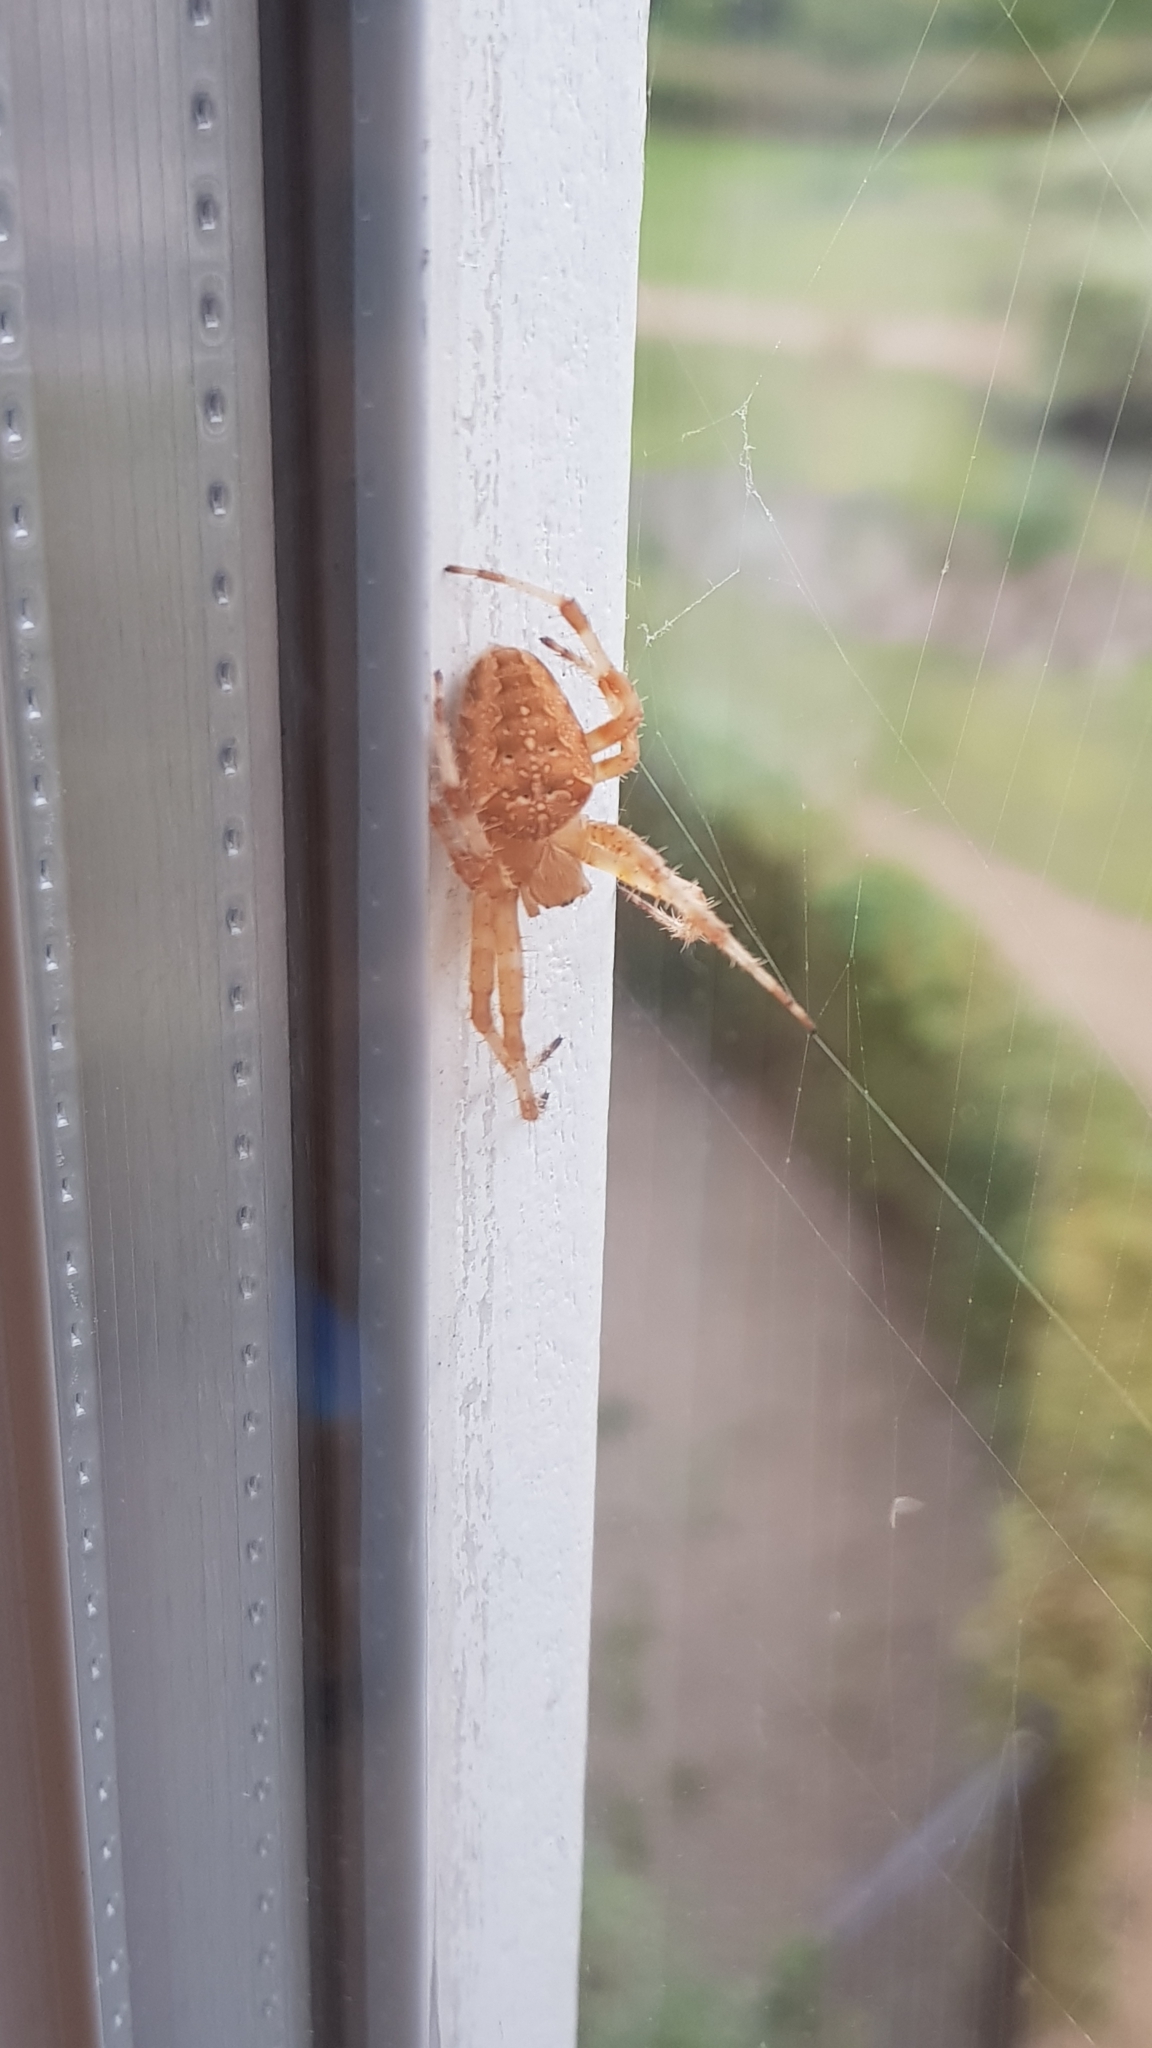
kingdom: Animalia
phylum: Arthropoda
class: Arachnida
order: Araneae
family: Araneidae
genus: Araneus
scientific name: Araneus diadematus
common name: Cross orbweaver
